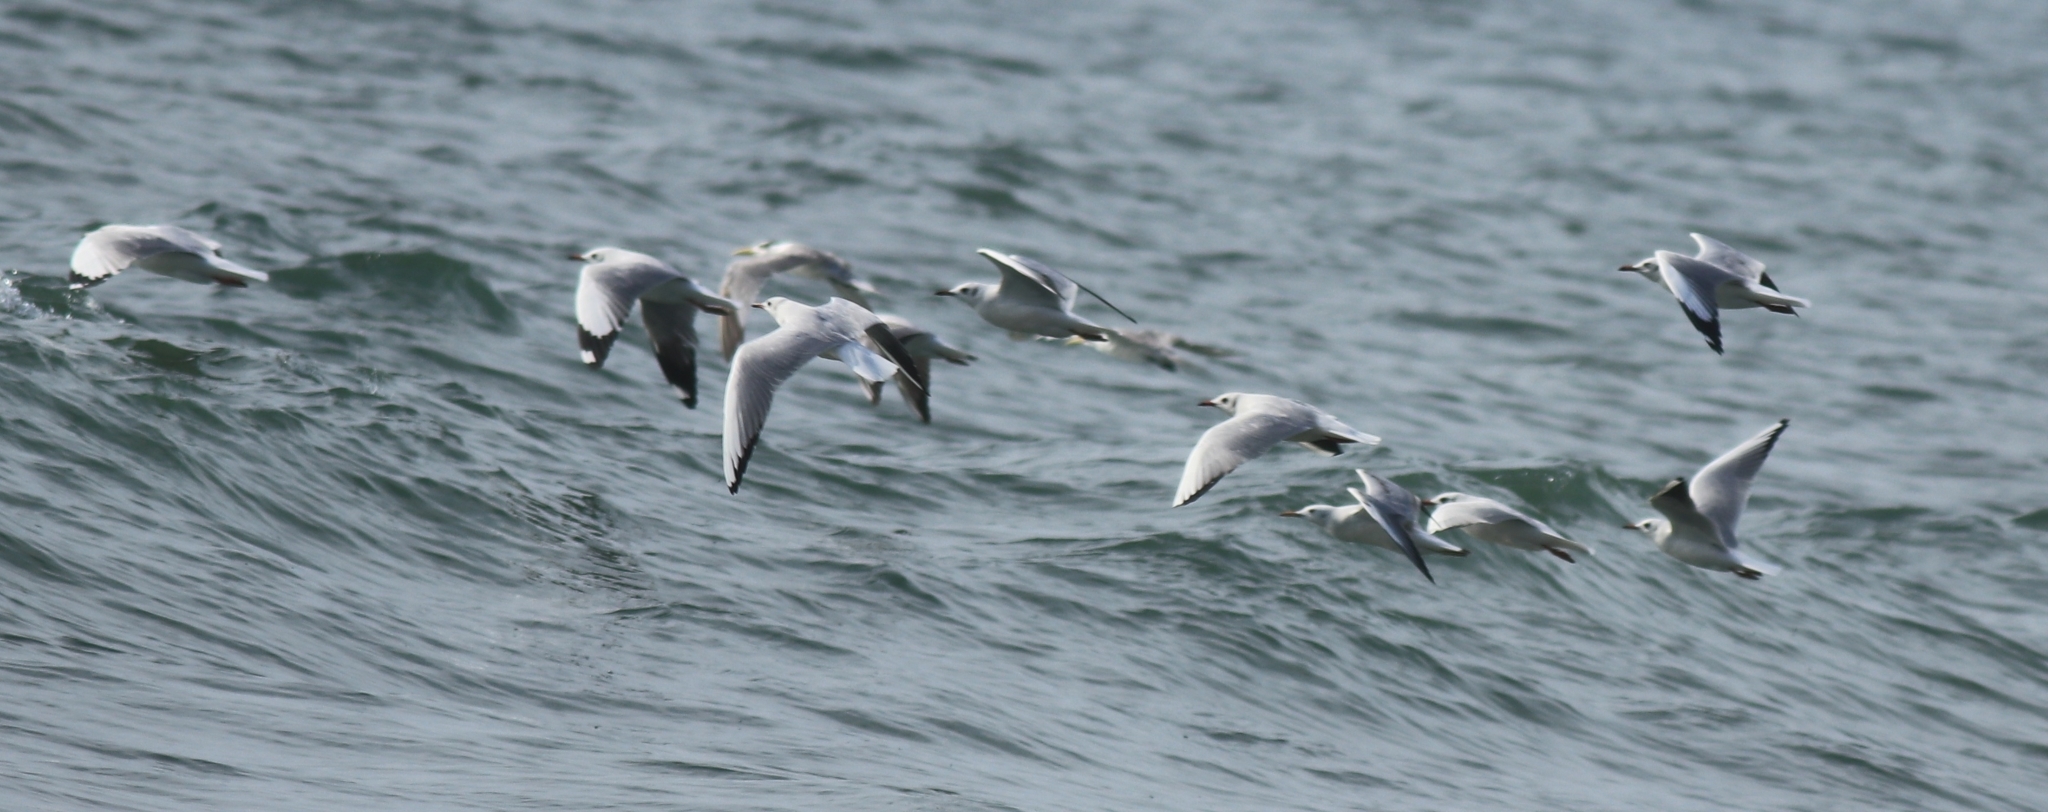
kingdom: Animalia
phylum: Chordata
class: Aves
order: Charadriiformes
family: Laridae
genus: Chroicocephalus
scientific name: Chroicocephalus brunnicephalus
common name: Brown-headed gull
